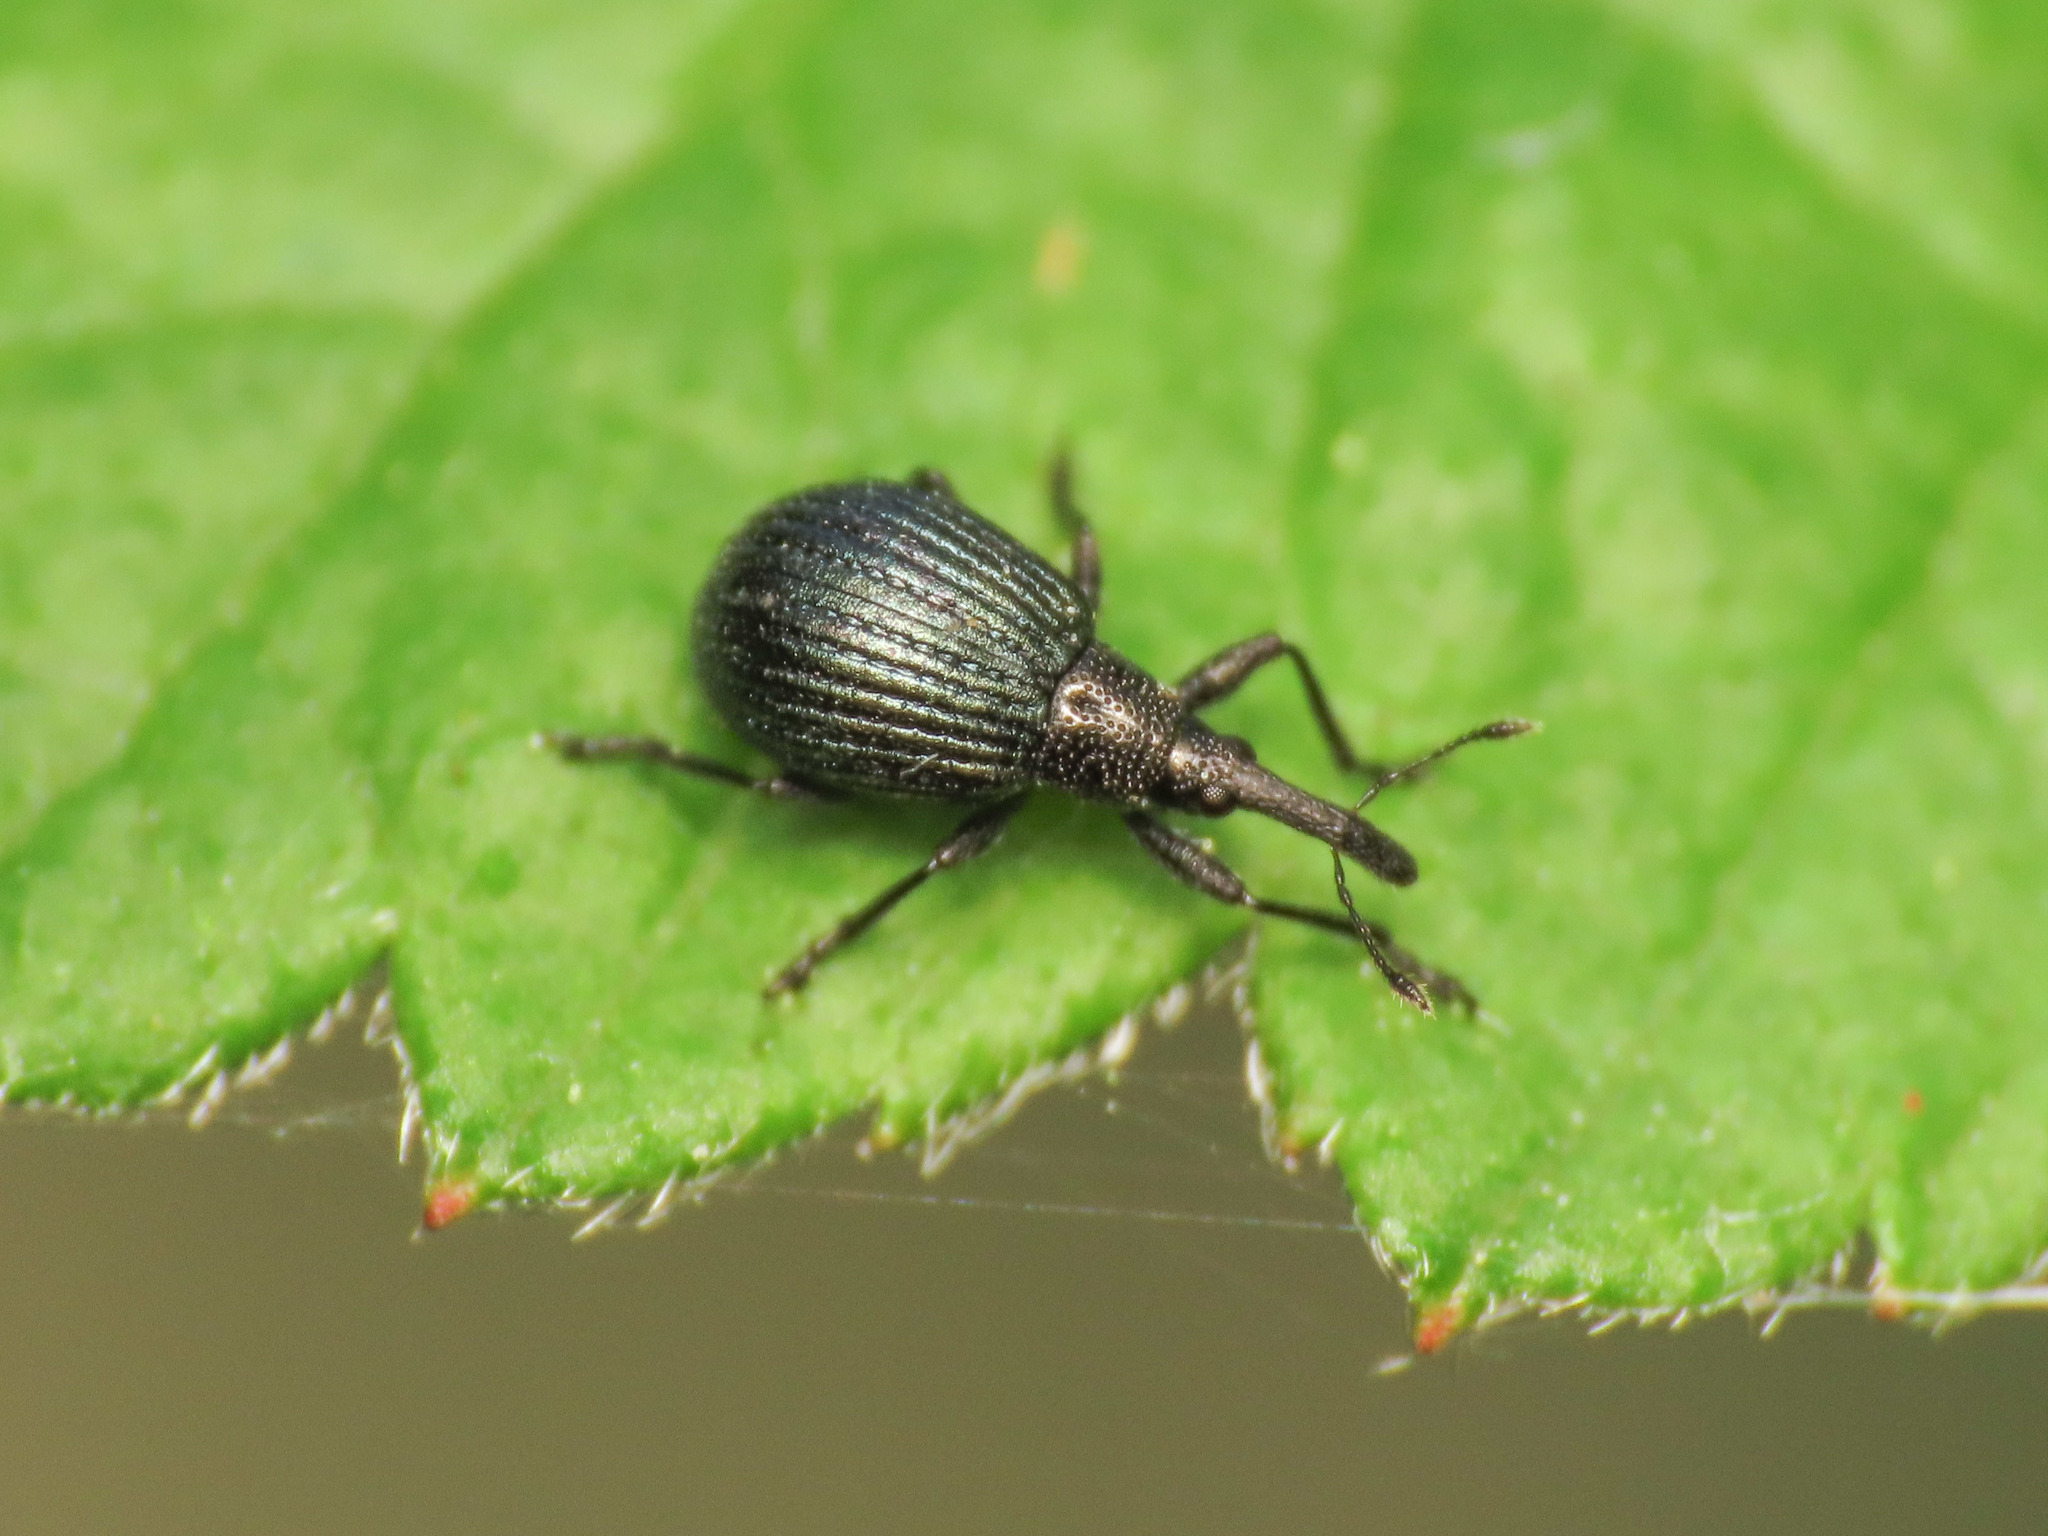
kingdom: Animalia
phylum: Arthropoda
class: Insecta
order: Coleoptera
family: Apionidae
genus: Holotrichapion
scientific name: Holotrichapion pisi
